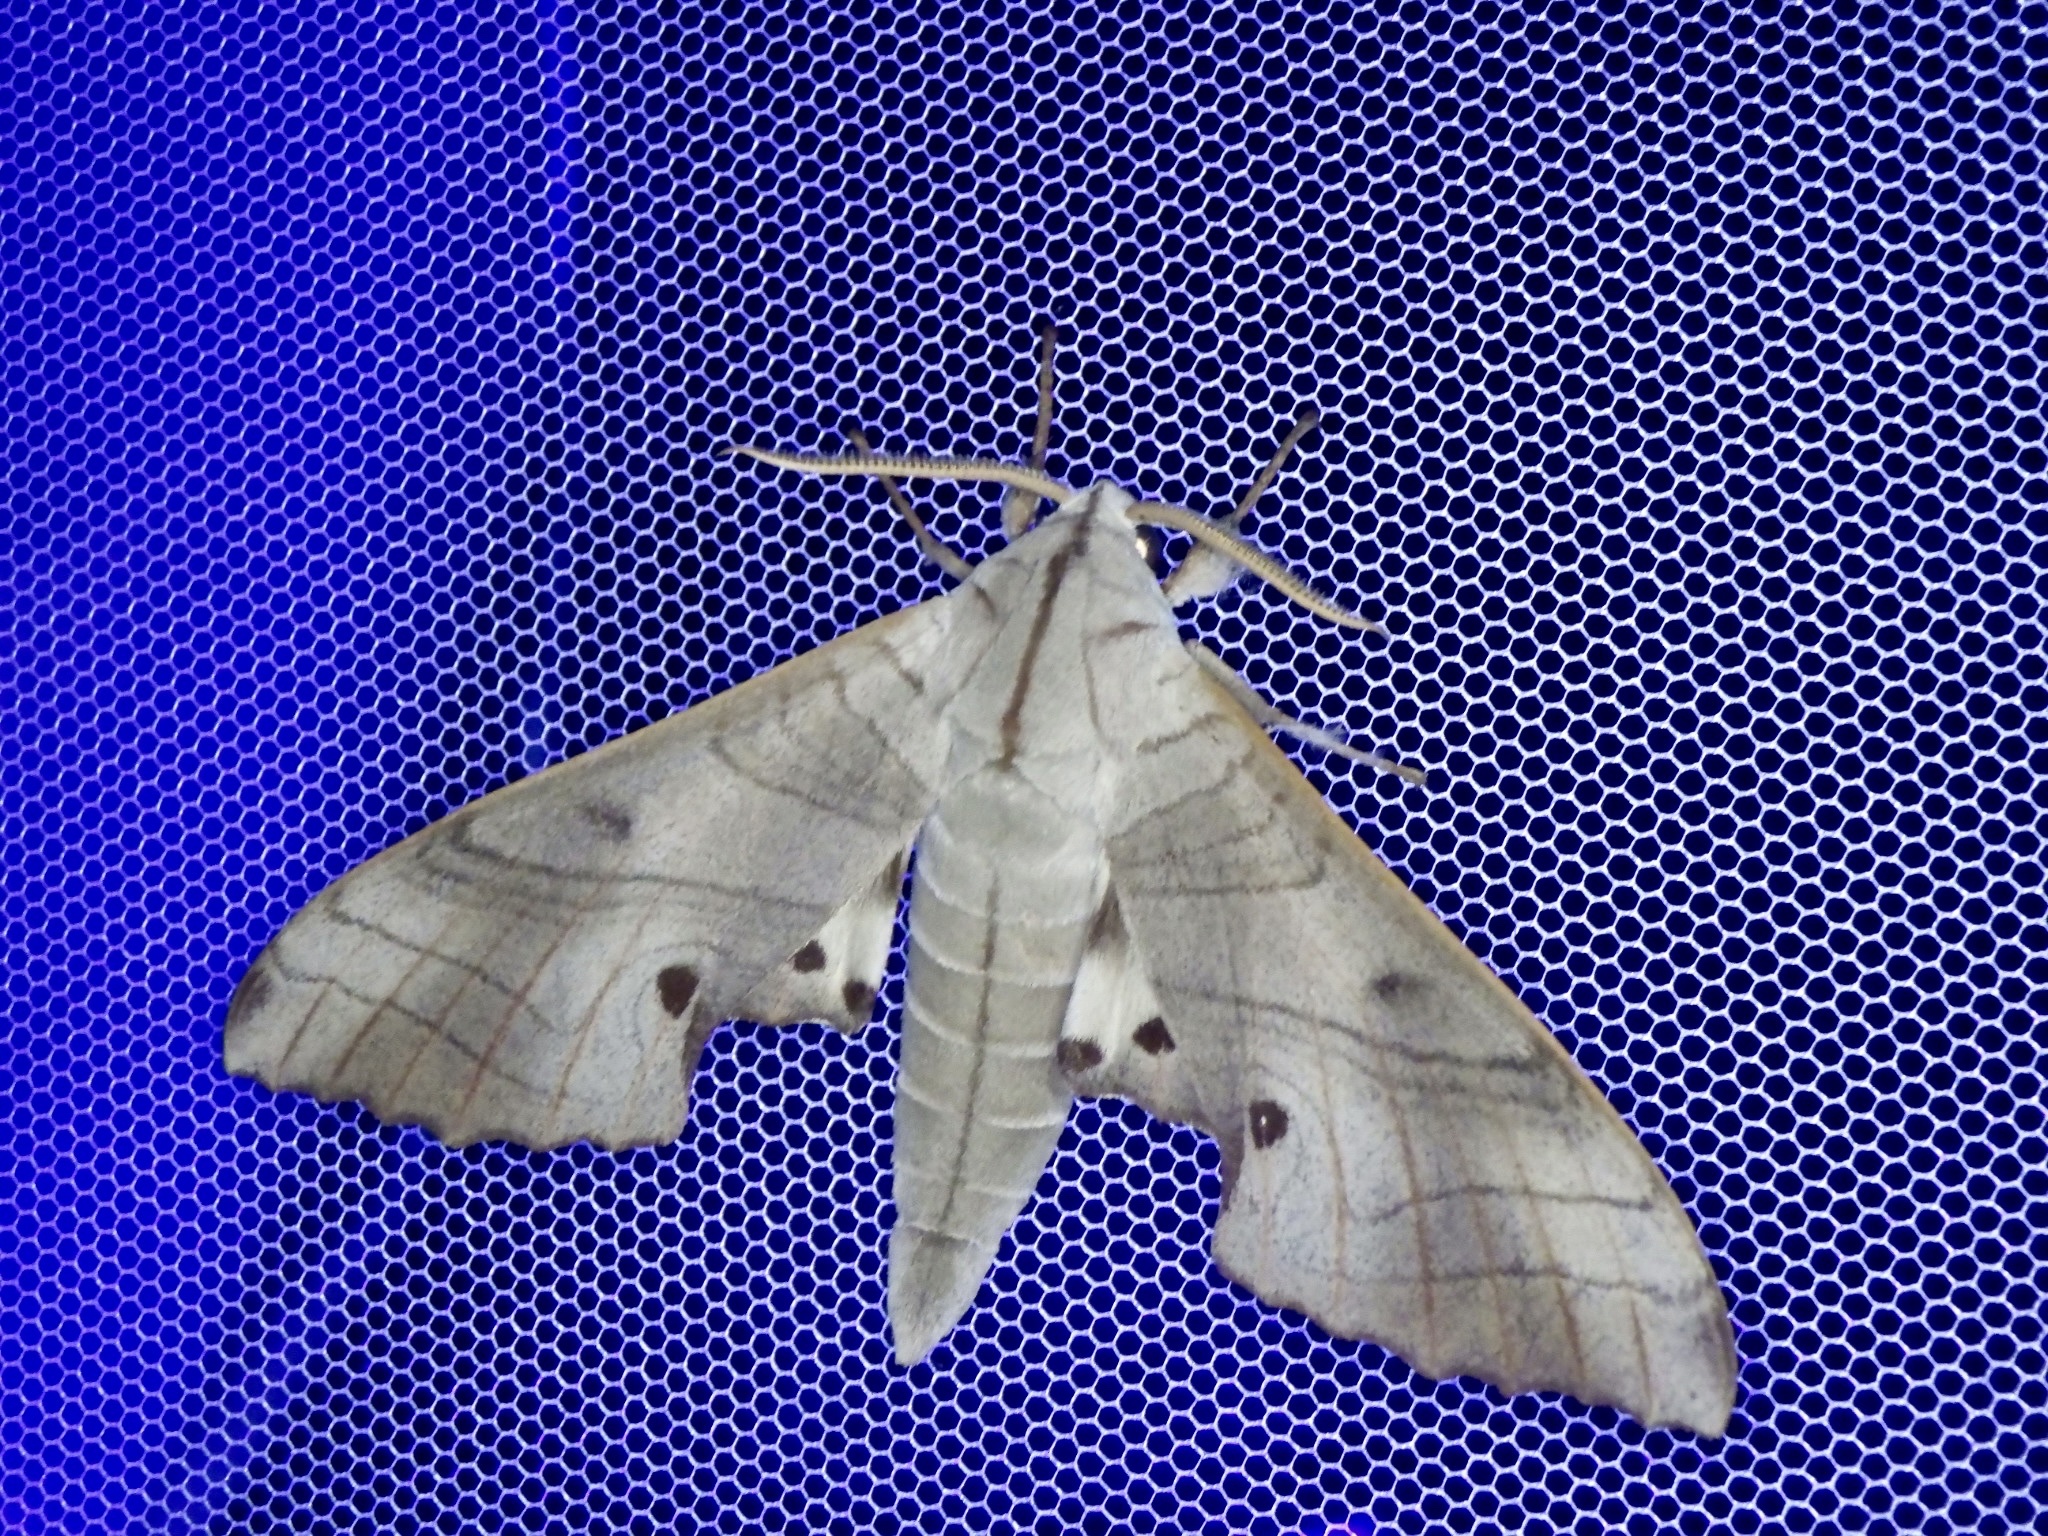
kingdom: Animalia
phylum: Arthropoda
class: Insecta
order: Lepidoptera
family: Sphingidae
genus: Marumba
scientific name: Marumba sperchius
